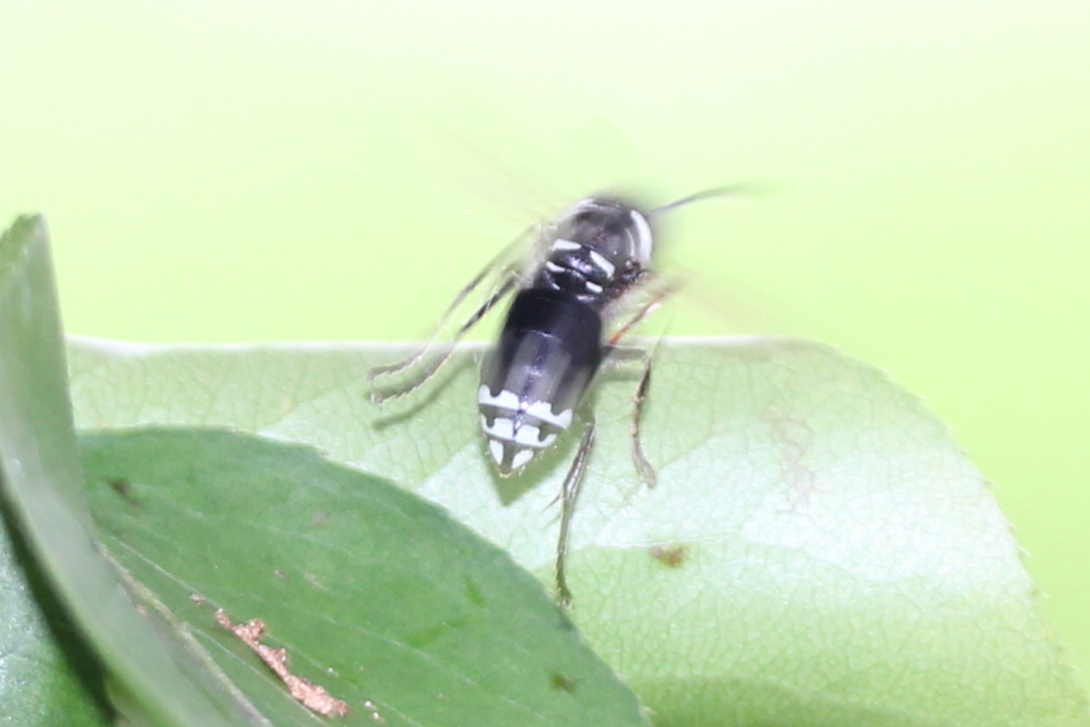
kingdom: Animalia
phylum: Arthropoda
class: Insecta
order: Hymenoptera
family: Vespidae
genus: Dolichovespula
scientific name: Dolichovespula maculata
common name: Bald-faced hornet
